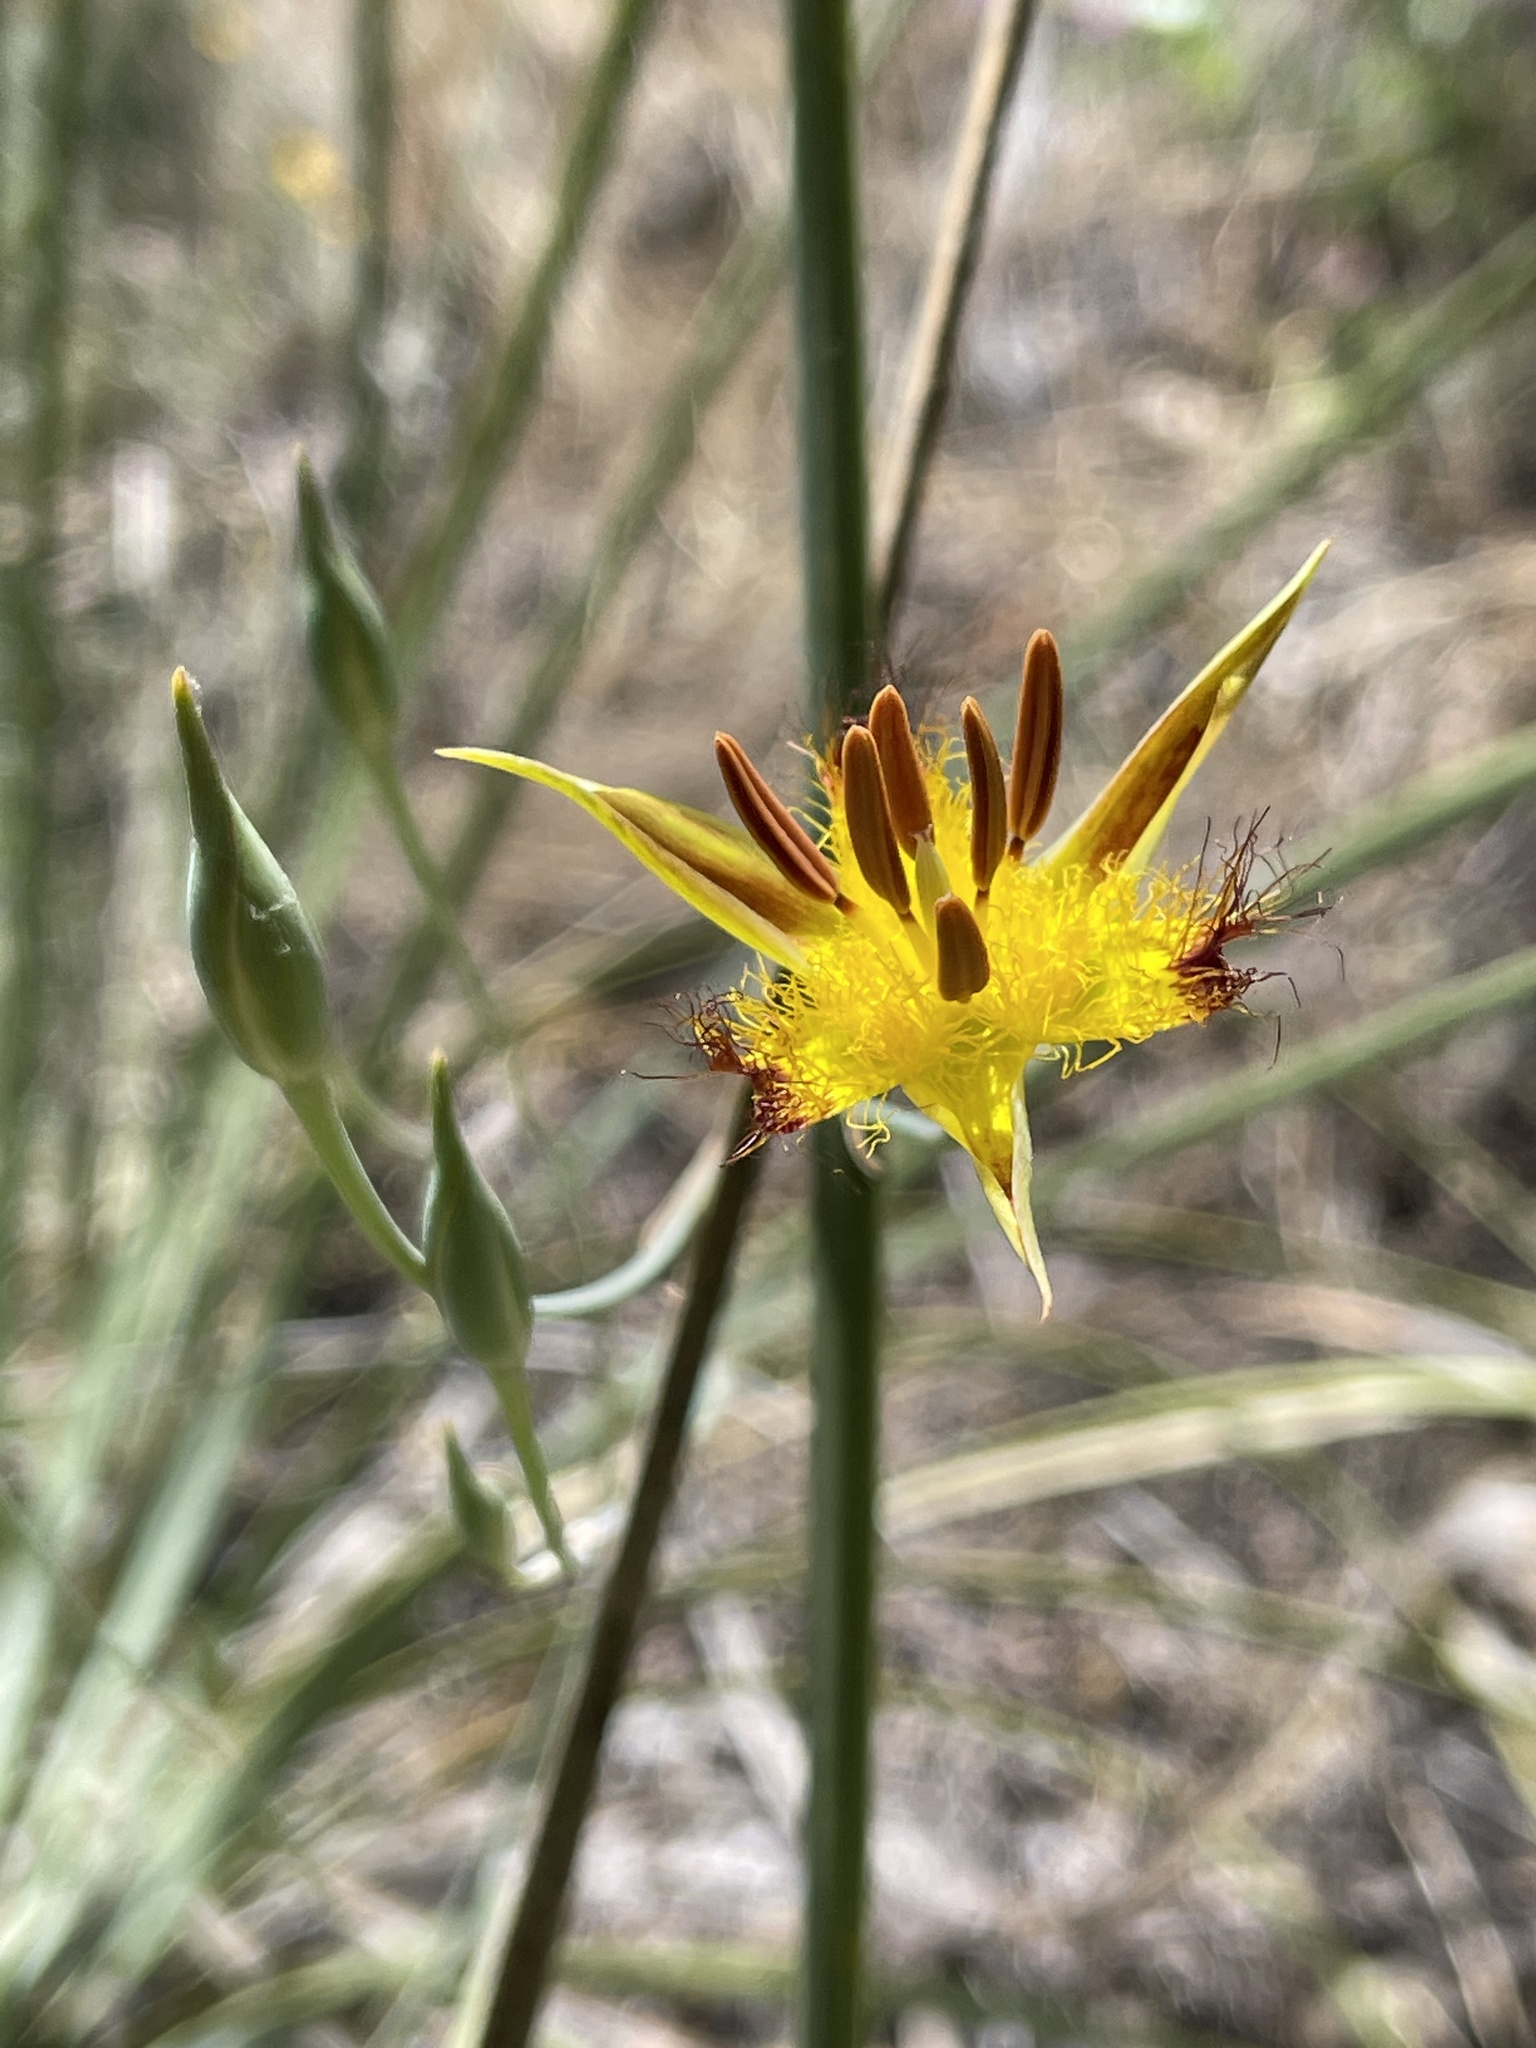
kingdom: Plantae
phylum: Tracheophyta
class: Liliopsida
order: Liliales
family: Liliaceae
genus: Calochortus
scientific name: Calochortus obispoensis
